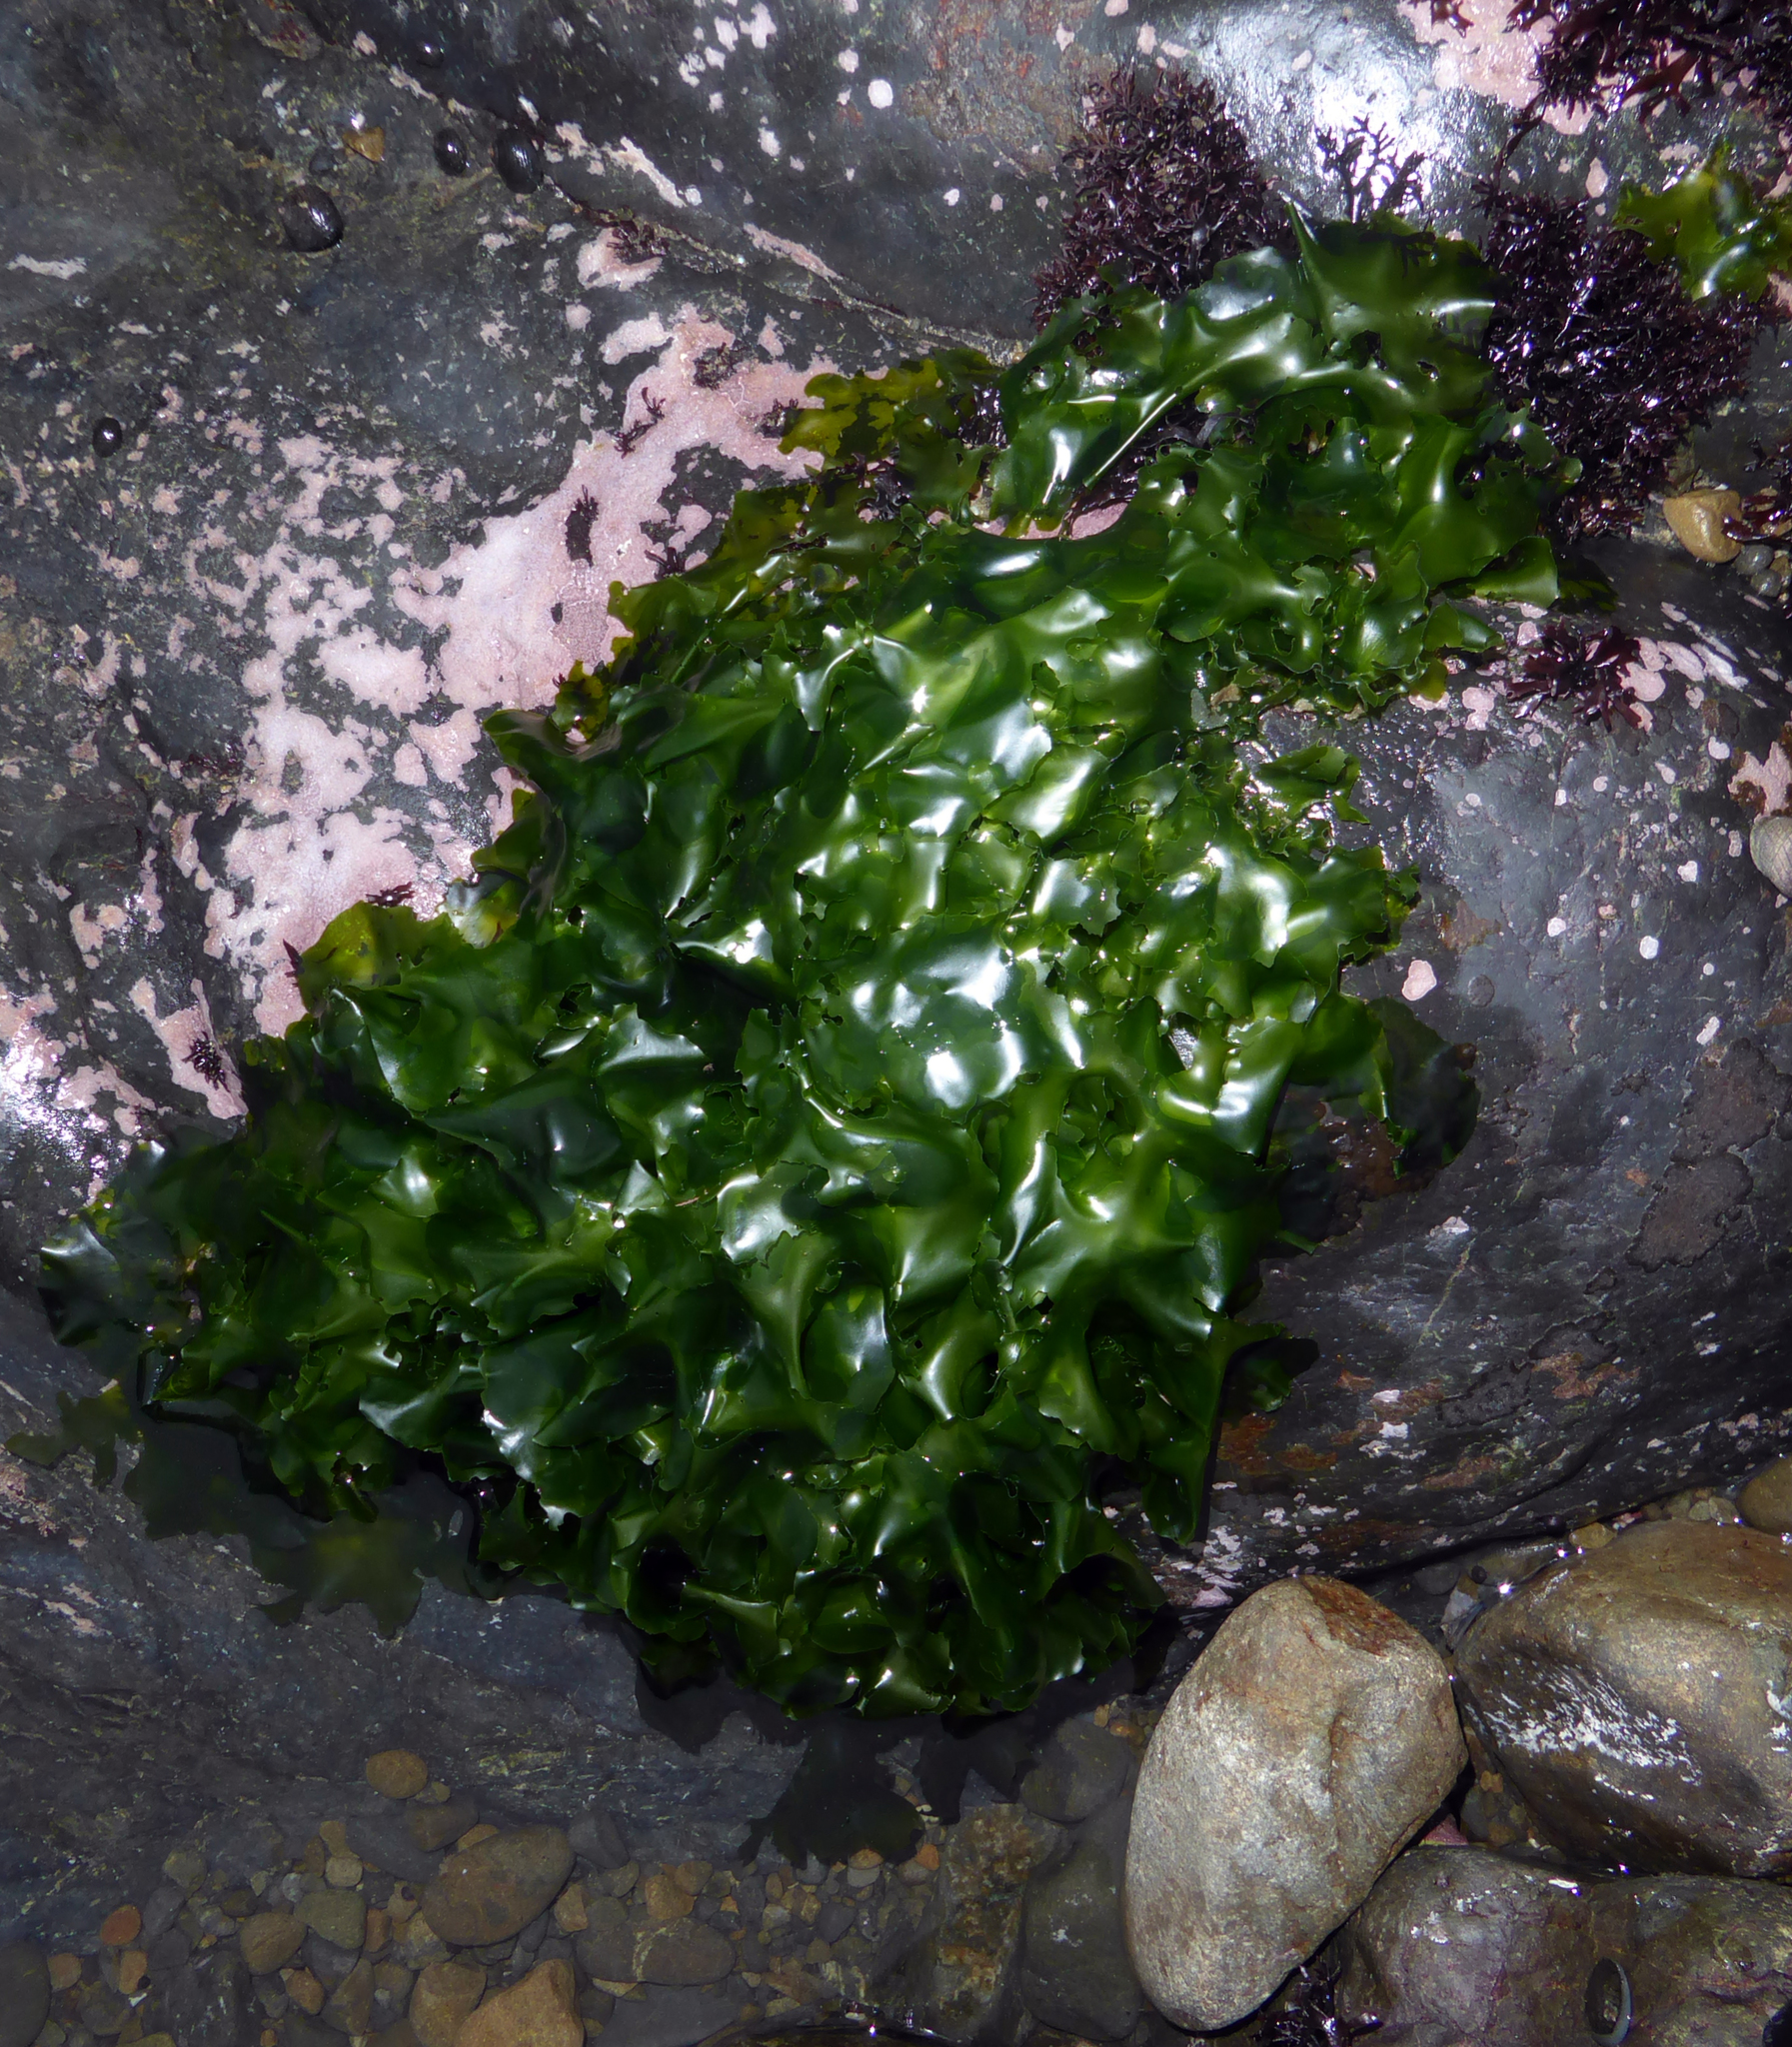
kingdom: Plantae
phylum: Chlorophyta
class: Ulvophyceae
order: Ulvales
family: Ulvaceae
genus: Ulva
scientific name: Ulva
